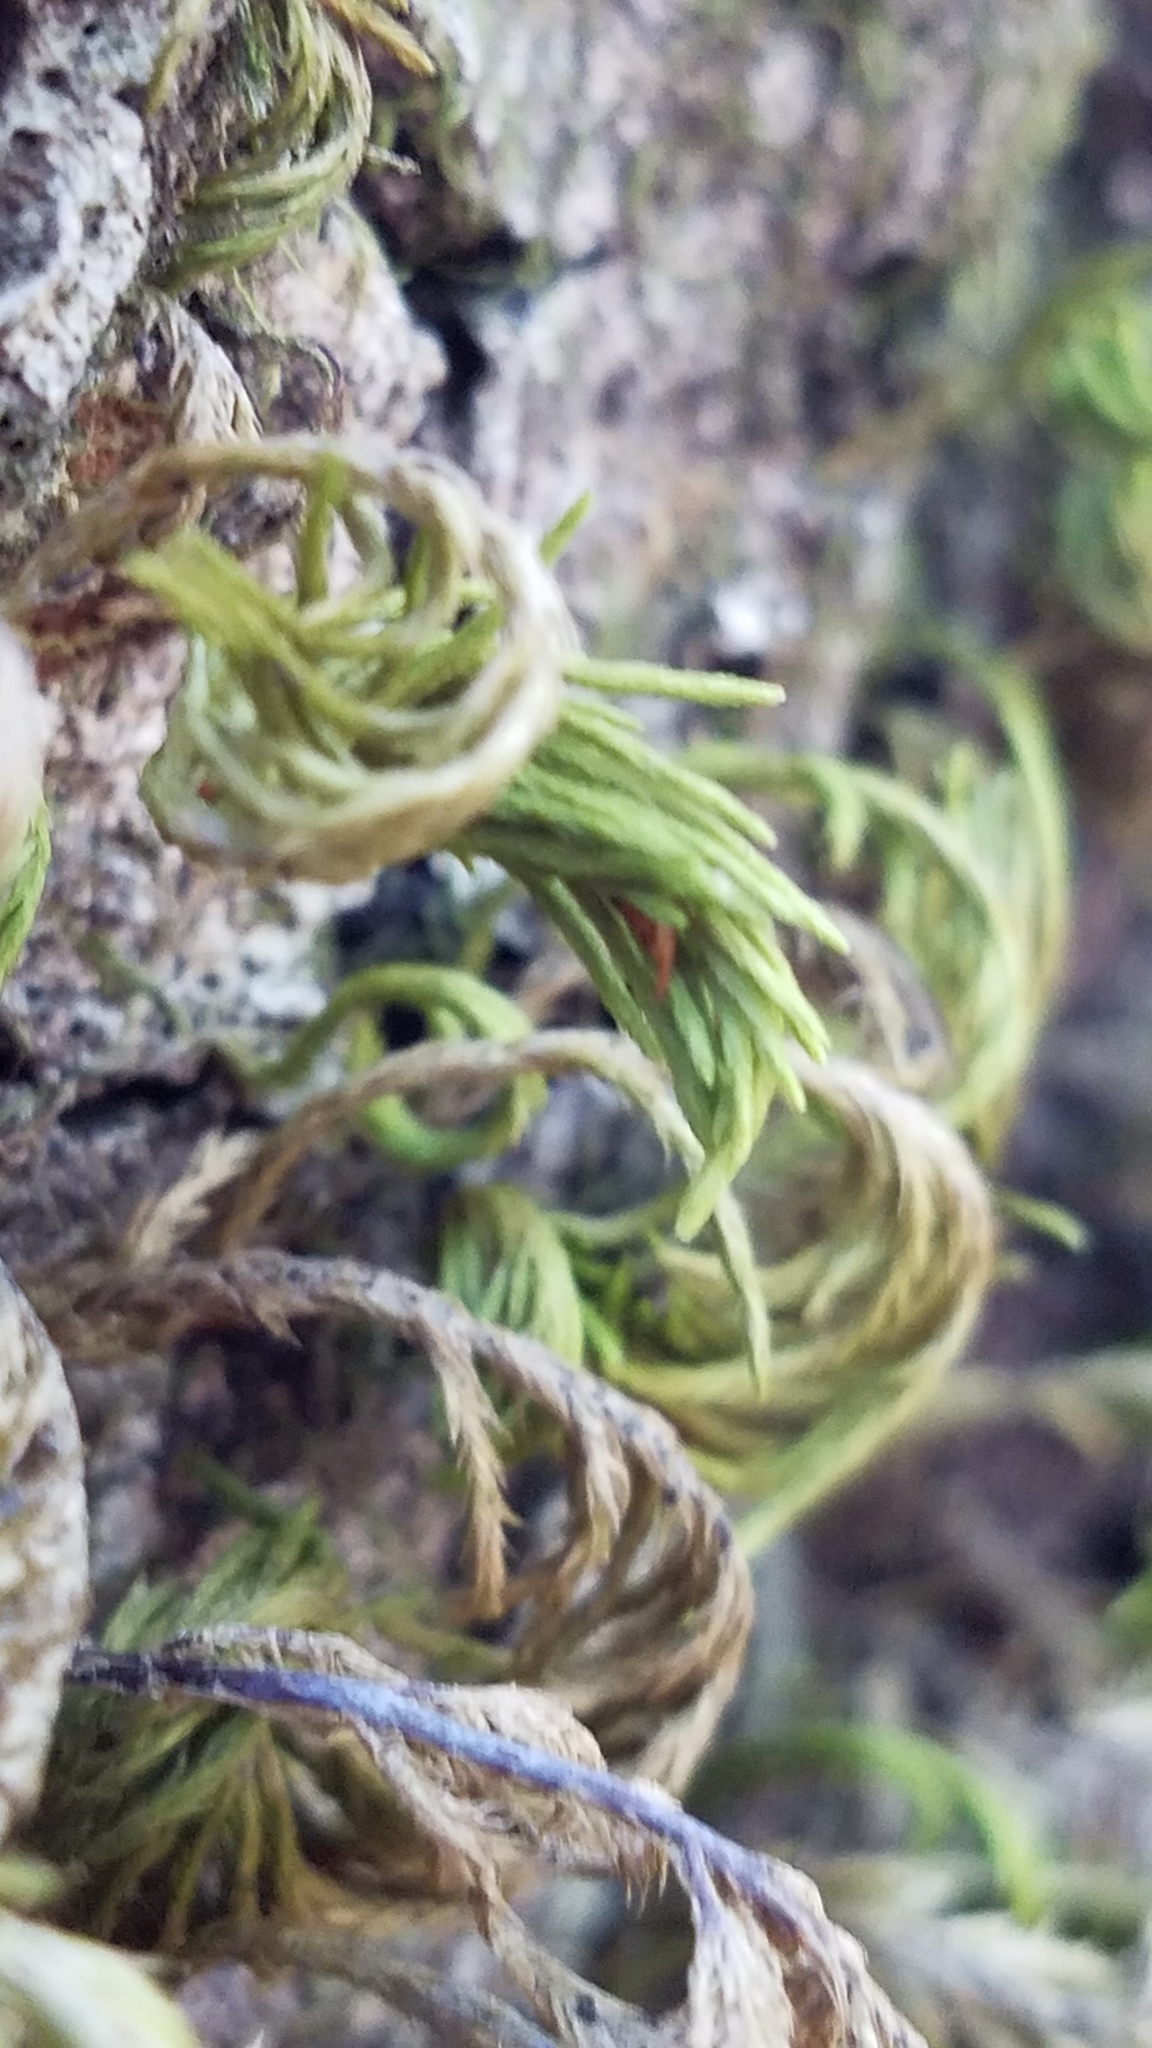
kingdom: Plantae
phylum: Bryophyta
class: Bryopsida
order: Hypnales
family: Cryphaeaceae
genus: Dendroalsia
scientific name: Dendroalsia abietina
